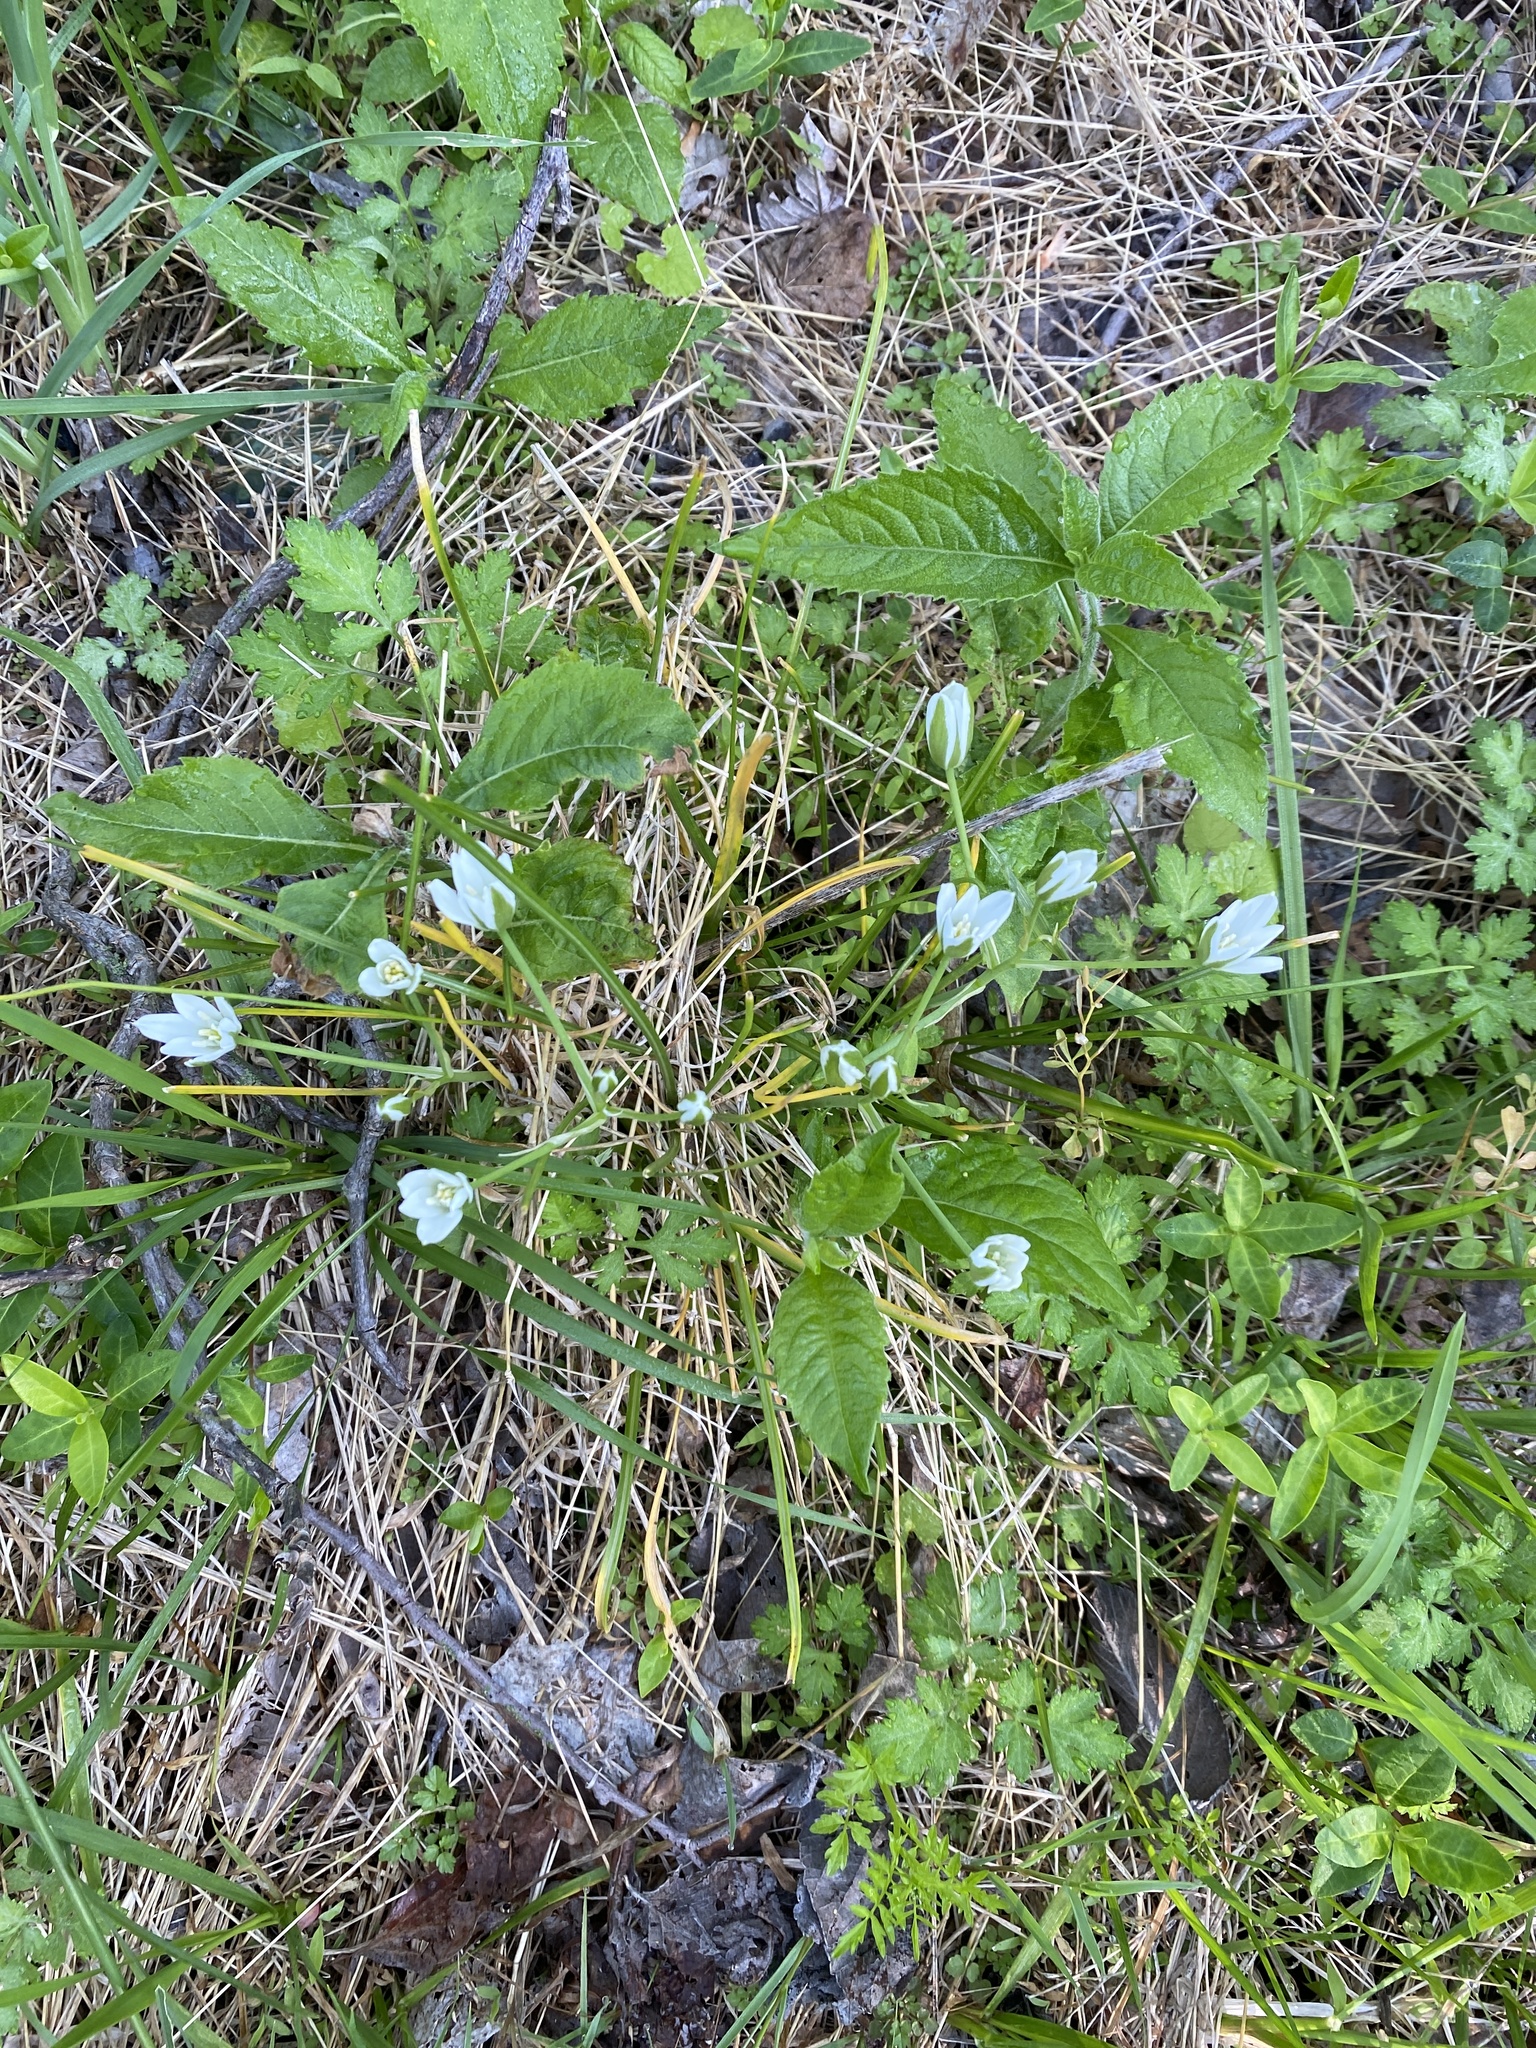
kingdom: Plantae
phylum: Tracheophyta
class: Liliopsida
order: Asparagales
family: Asparagaceae
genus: Ornithogalum
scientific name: Ornithogalum umbellatum
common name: Garden star-of-bethlehem
